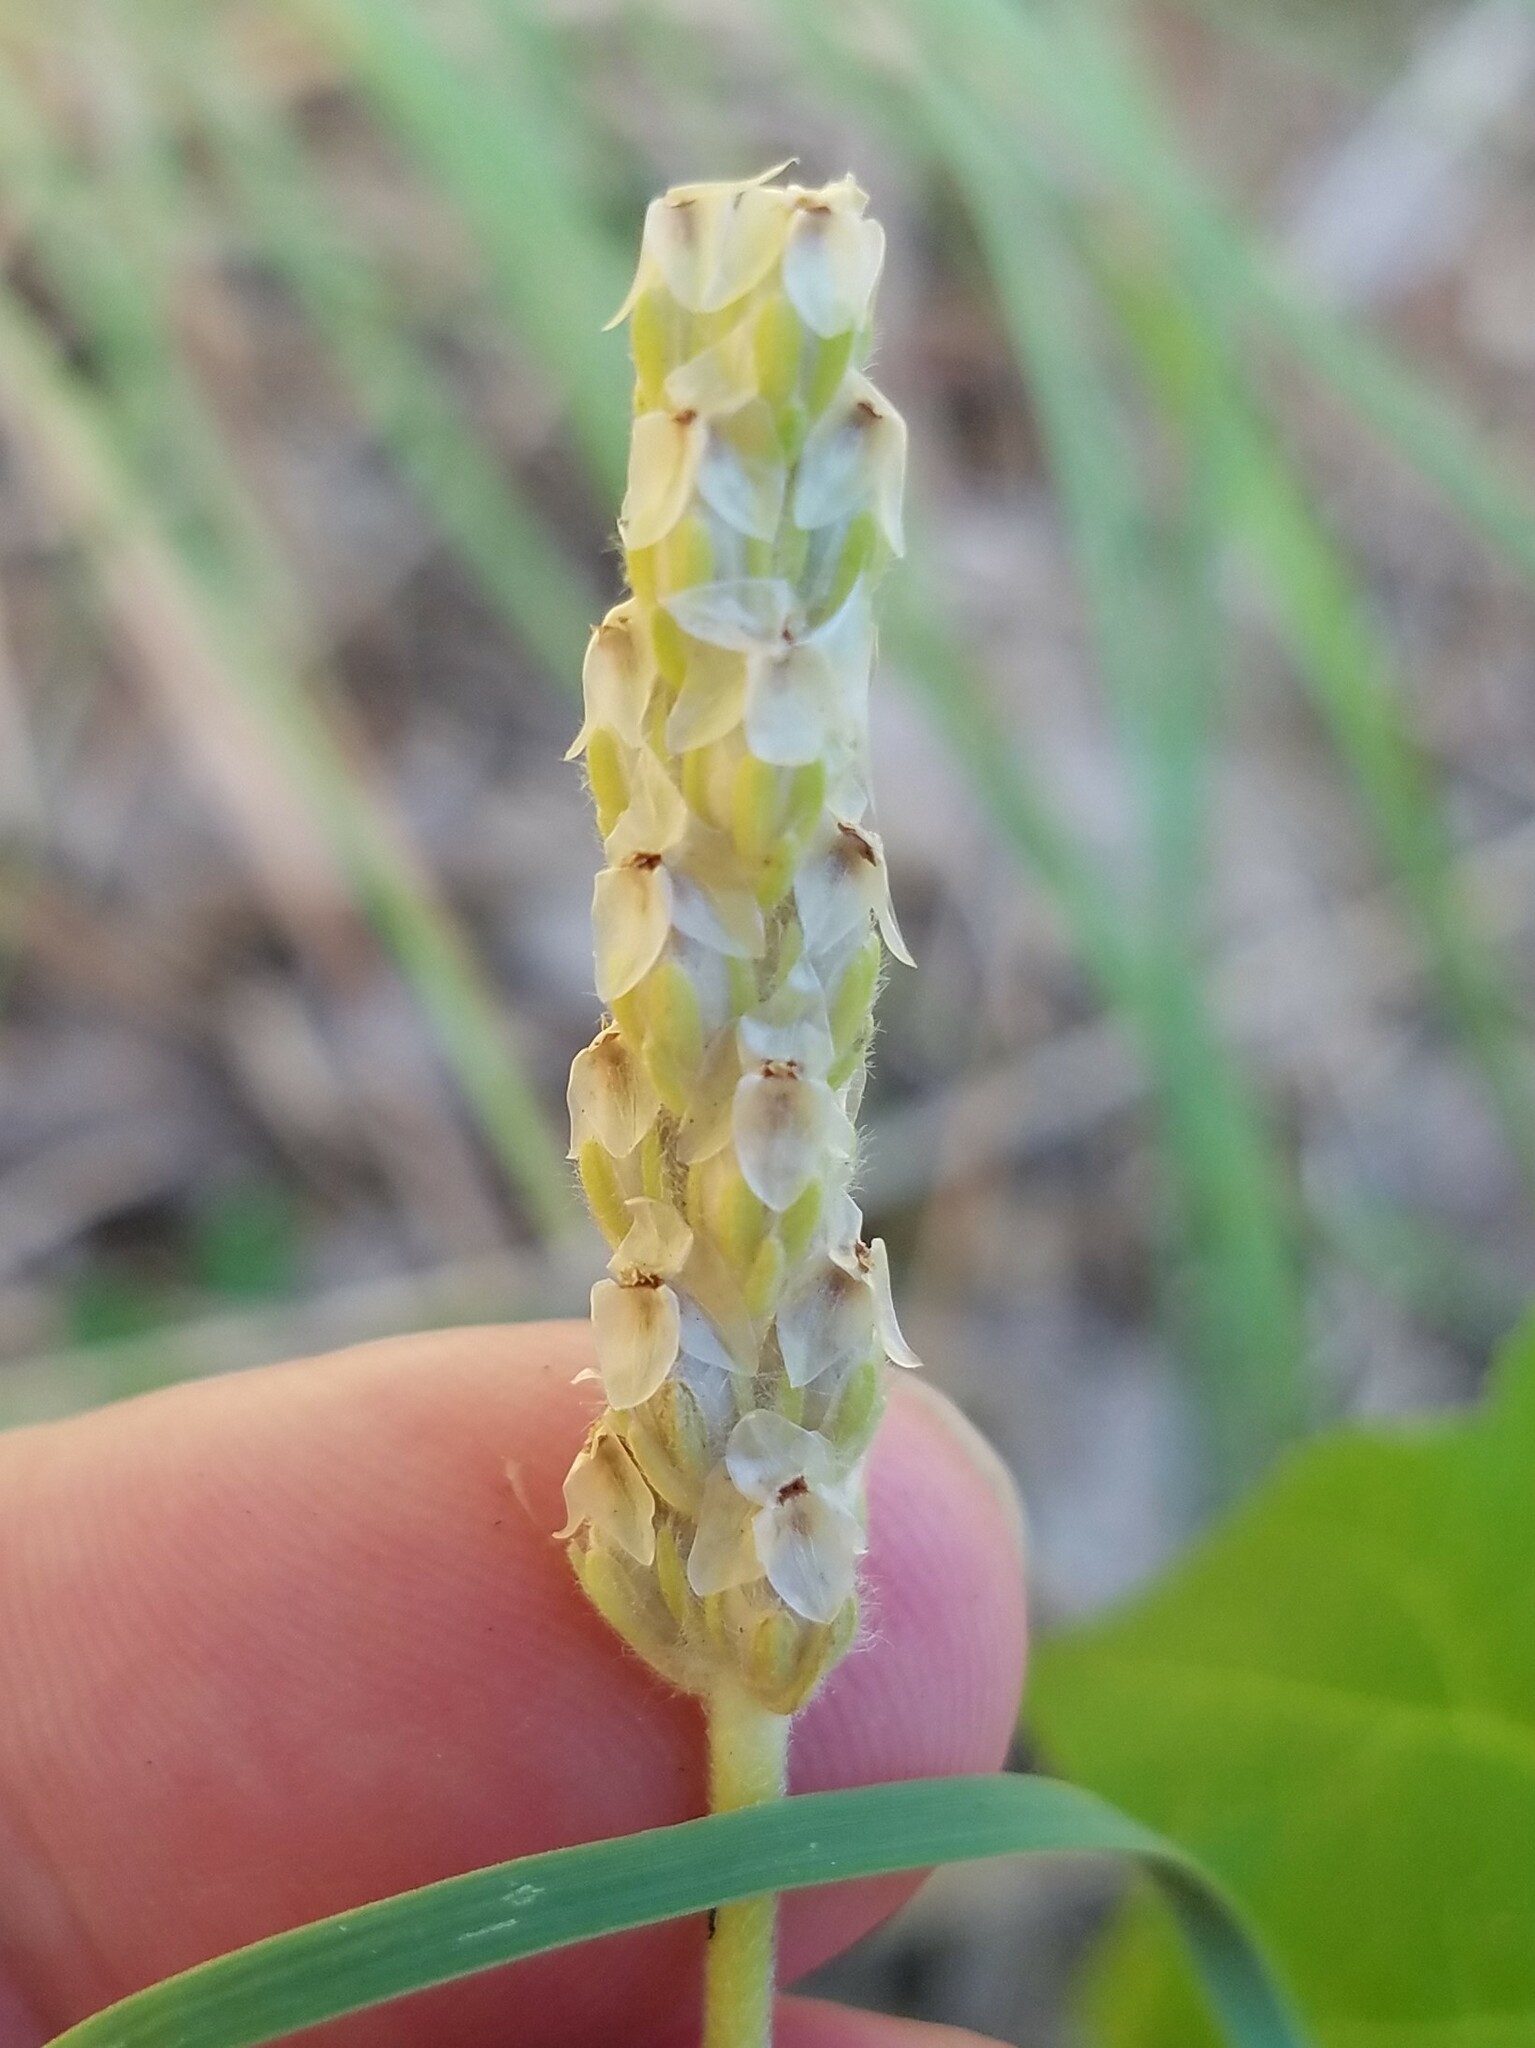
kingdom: Plantae
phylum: Tracheophyta
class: Magnoliopsida
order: Lamiales
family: Plantaginaceae
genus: Plantago
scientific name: Plantago wrightiana
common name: Wright's plantain
